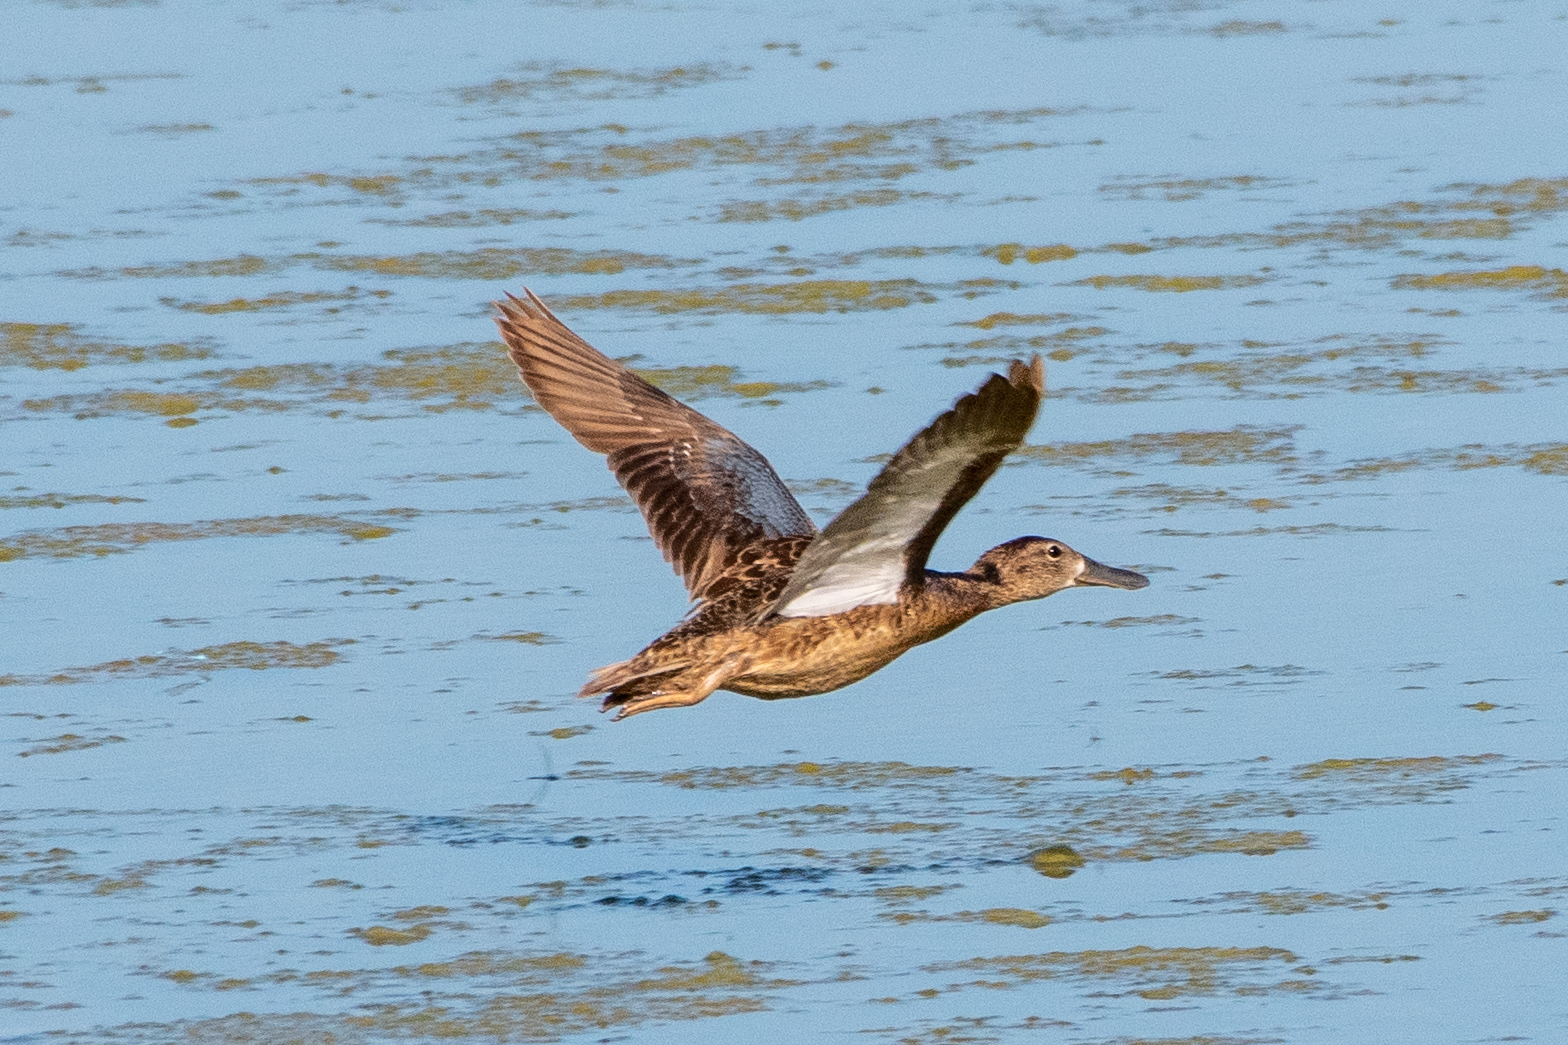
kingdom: Animalia
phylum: Chordata
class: Aves
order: Anseriformes
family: Anatidae
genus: Spatula
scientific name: Spatula clypeata
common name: Northern shoveler
